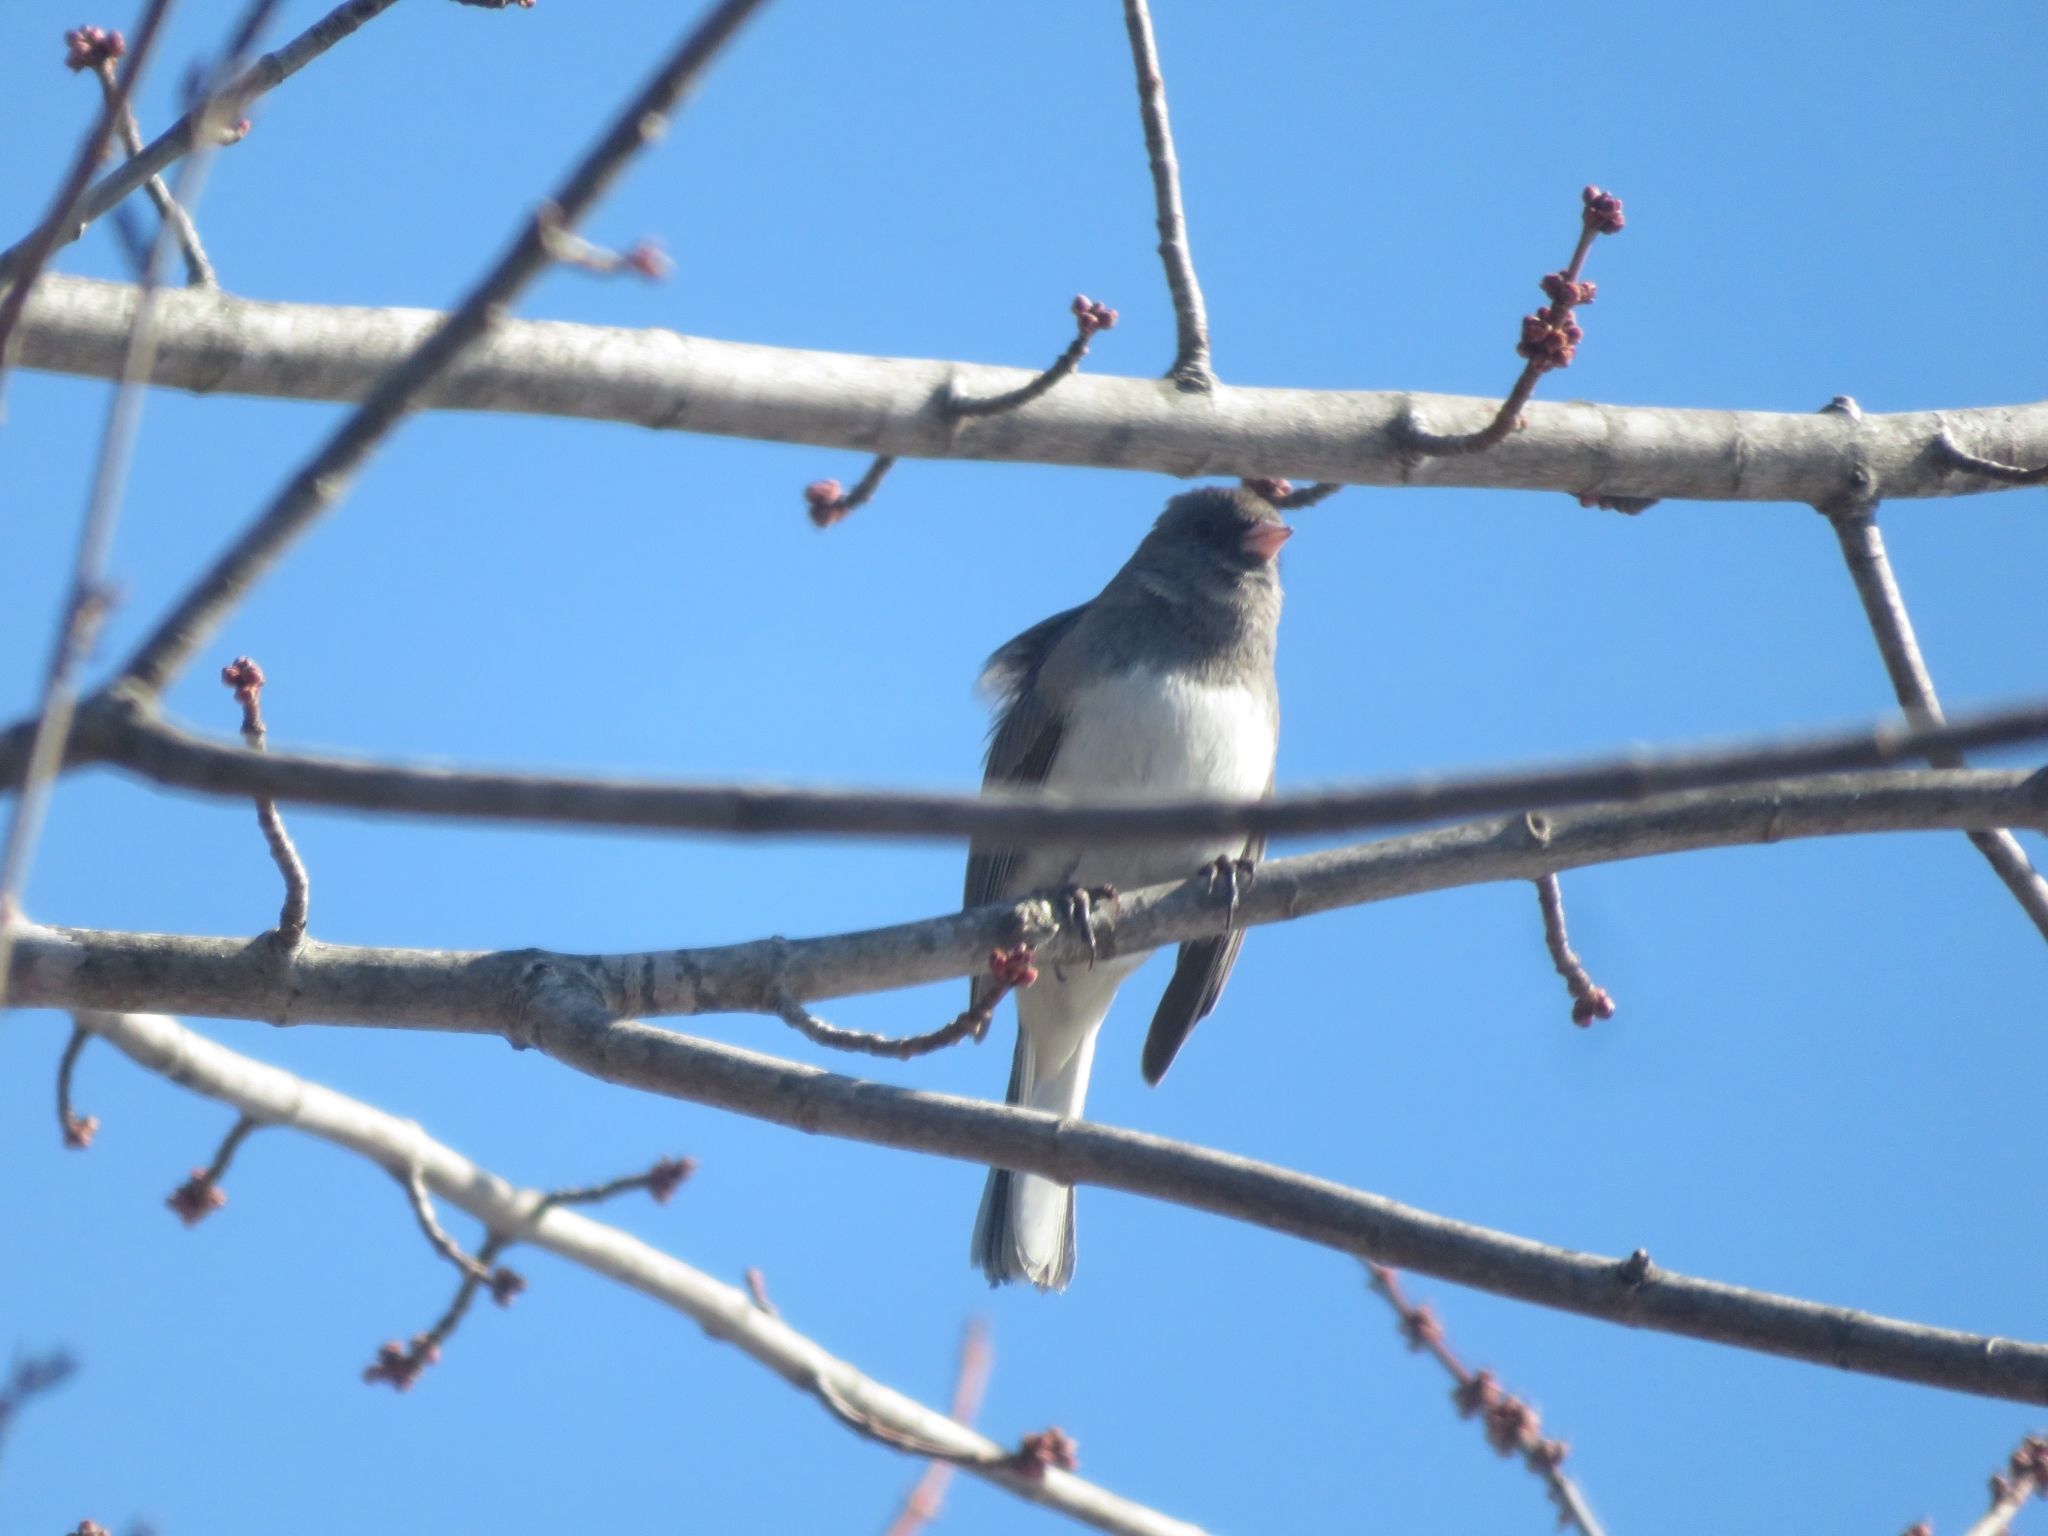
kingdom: Animalia
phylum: Chordata
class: Aves
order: Passeriformes
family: Passerellidae
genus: Junco
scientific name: Junco hyemalis
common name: Dark-eyed junco
